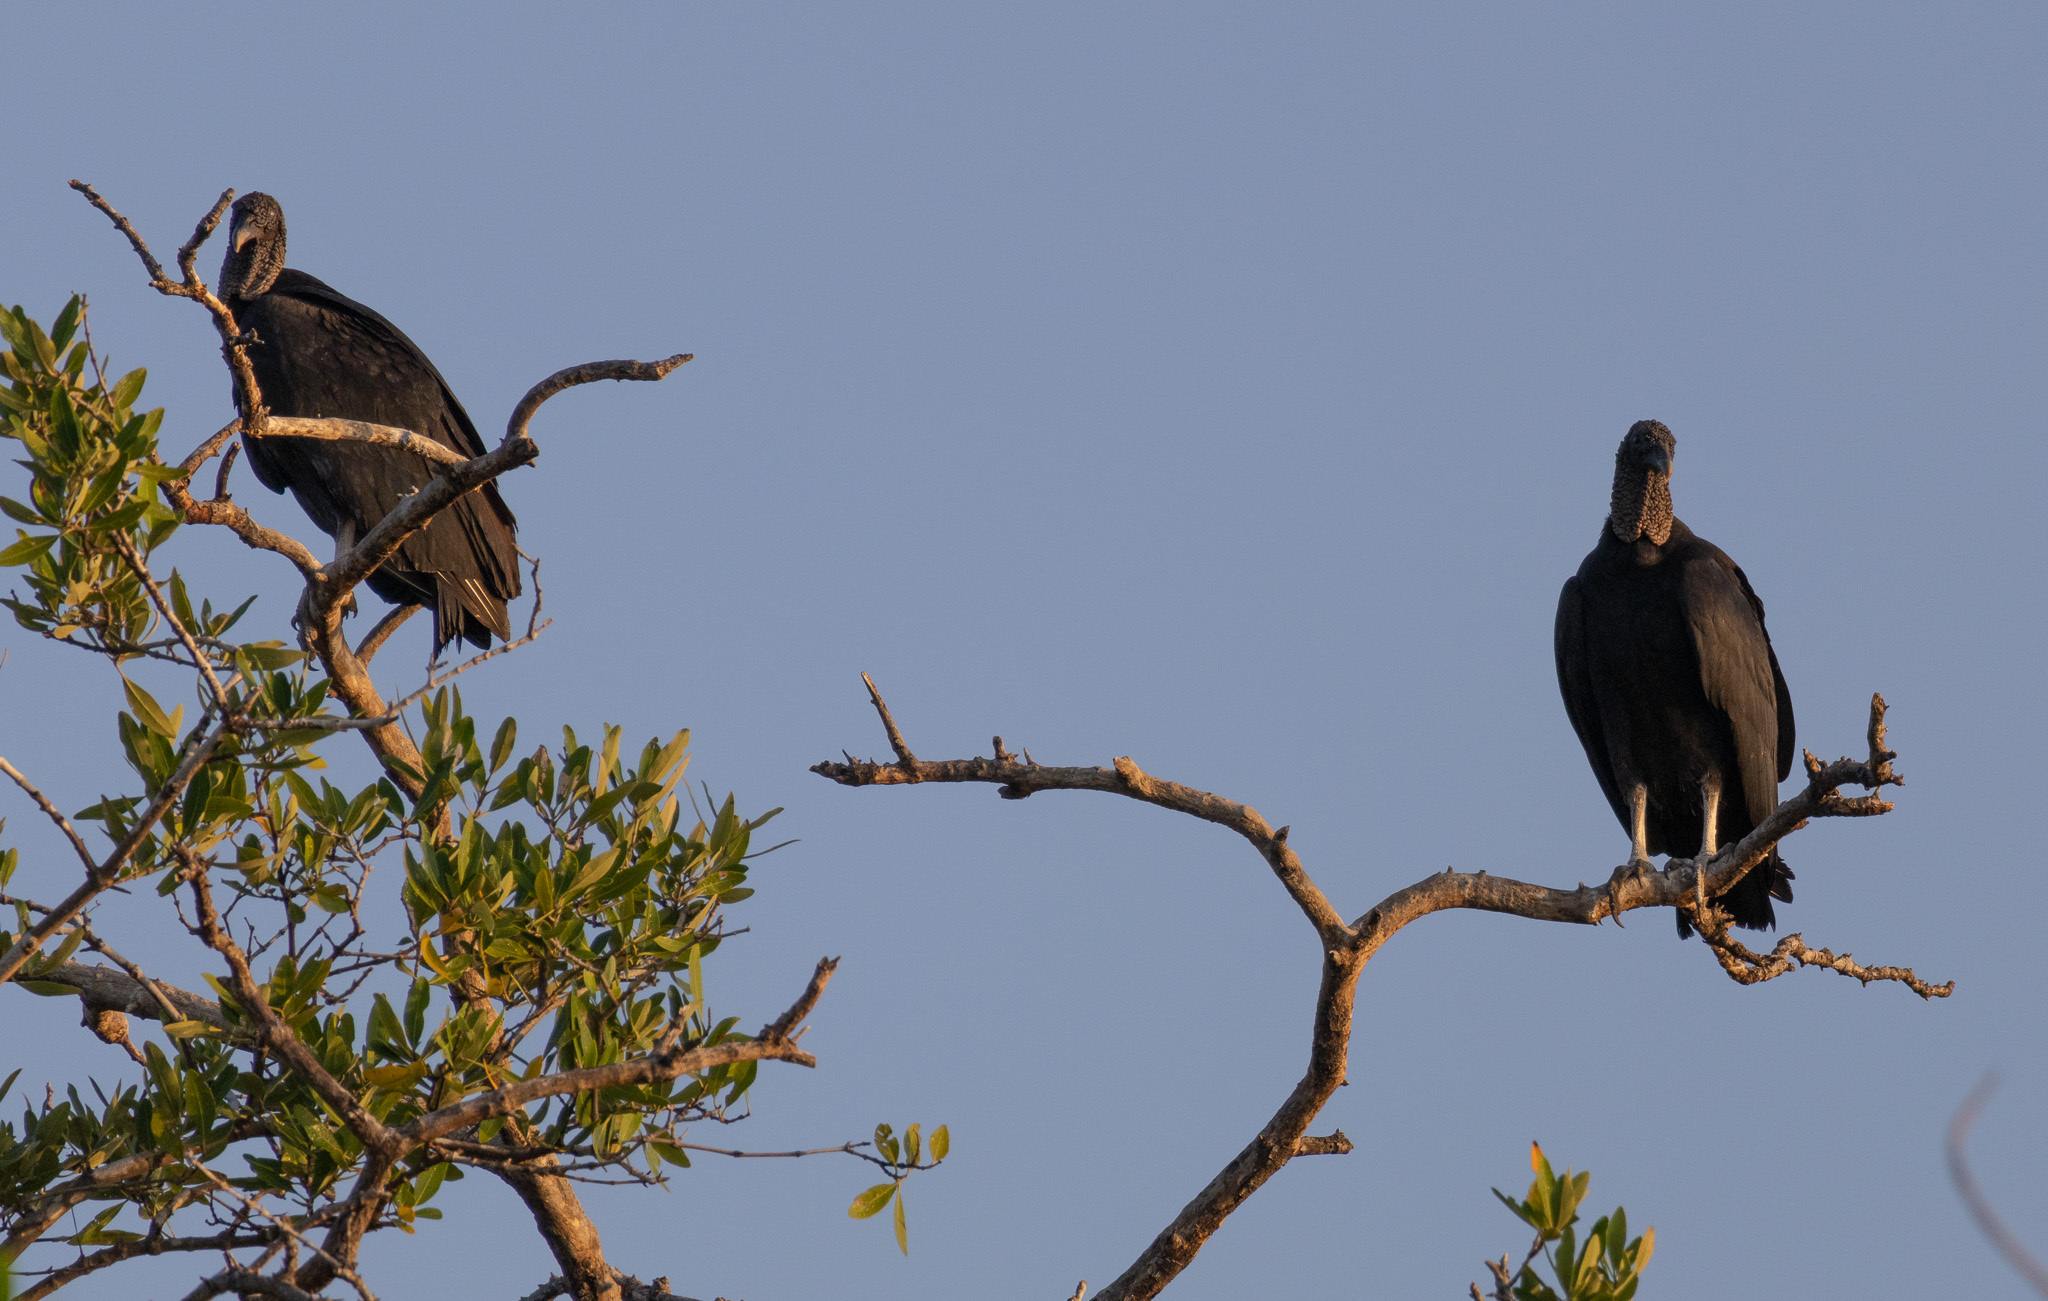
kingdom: Animalia
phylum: Chordata
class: Aves
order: Accipitriformes
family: Cathartidae
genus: Coragyps
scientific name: Coragyps atratus
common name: Black vulture
